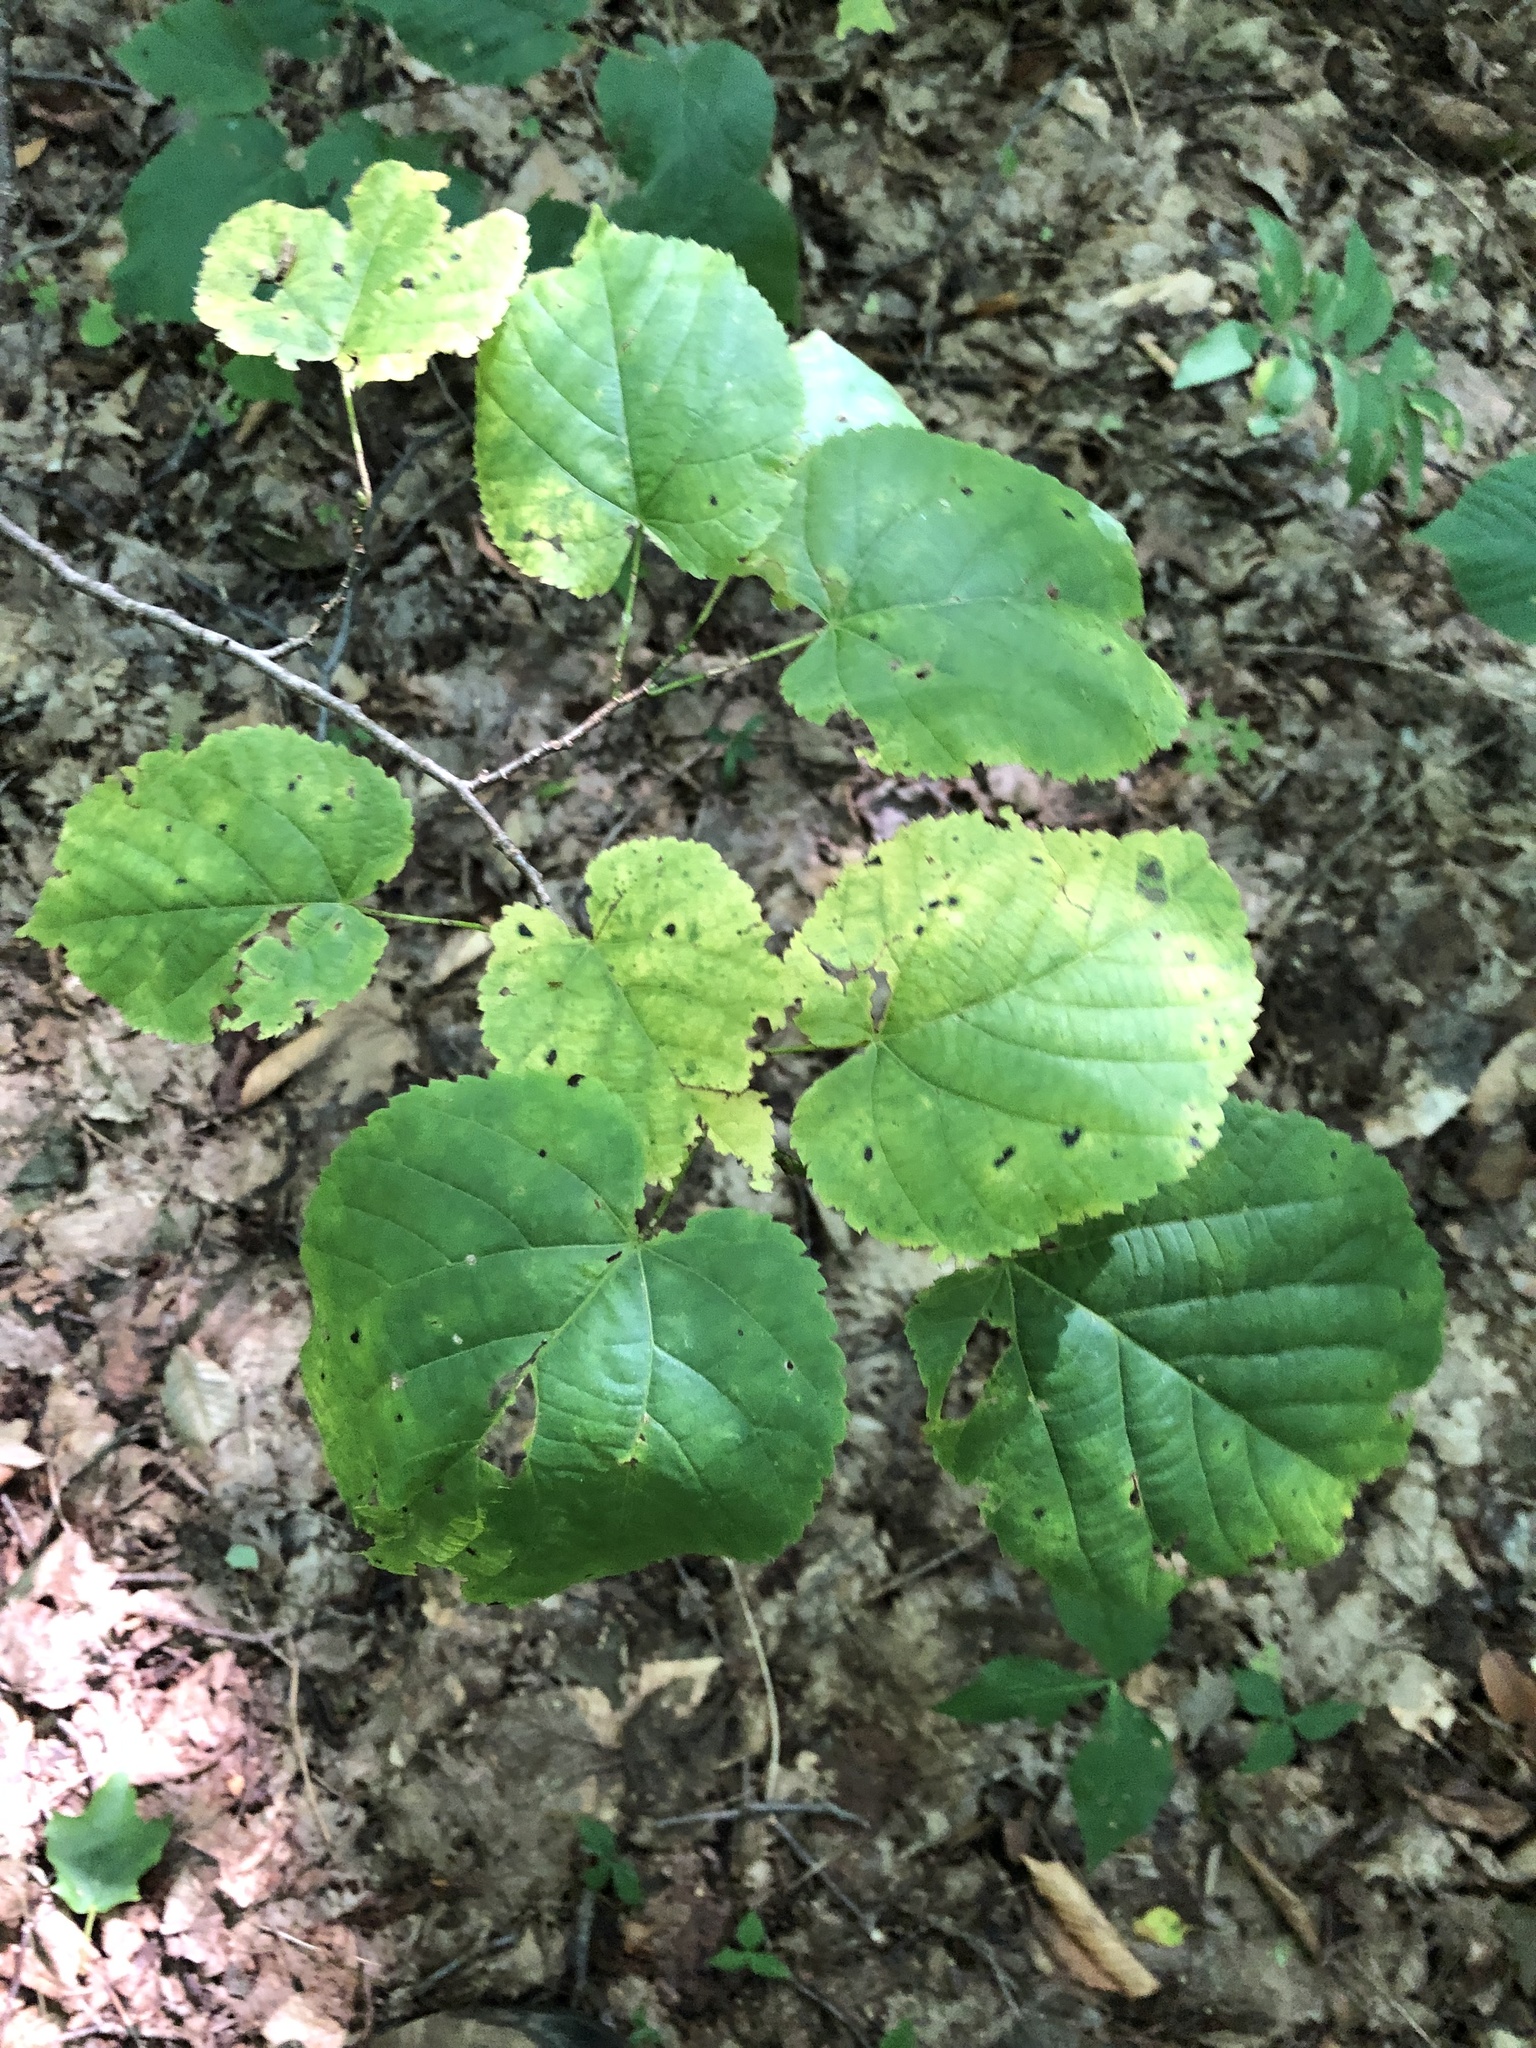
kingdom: Plantae
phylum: Tracheophyta
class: Magnoliopsida
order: Malvales
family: Malvaceae
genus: Tilia
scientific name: Tilia americana
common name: Basswood
